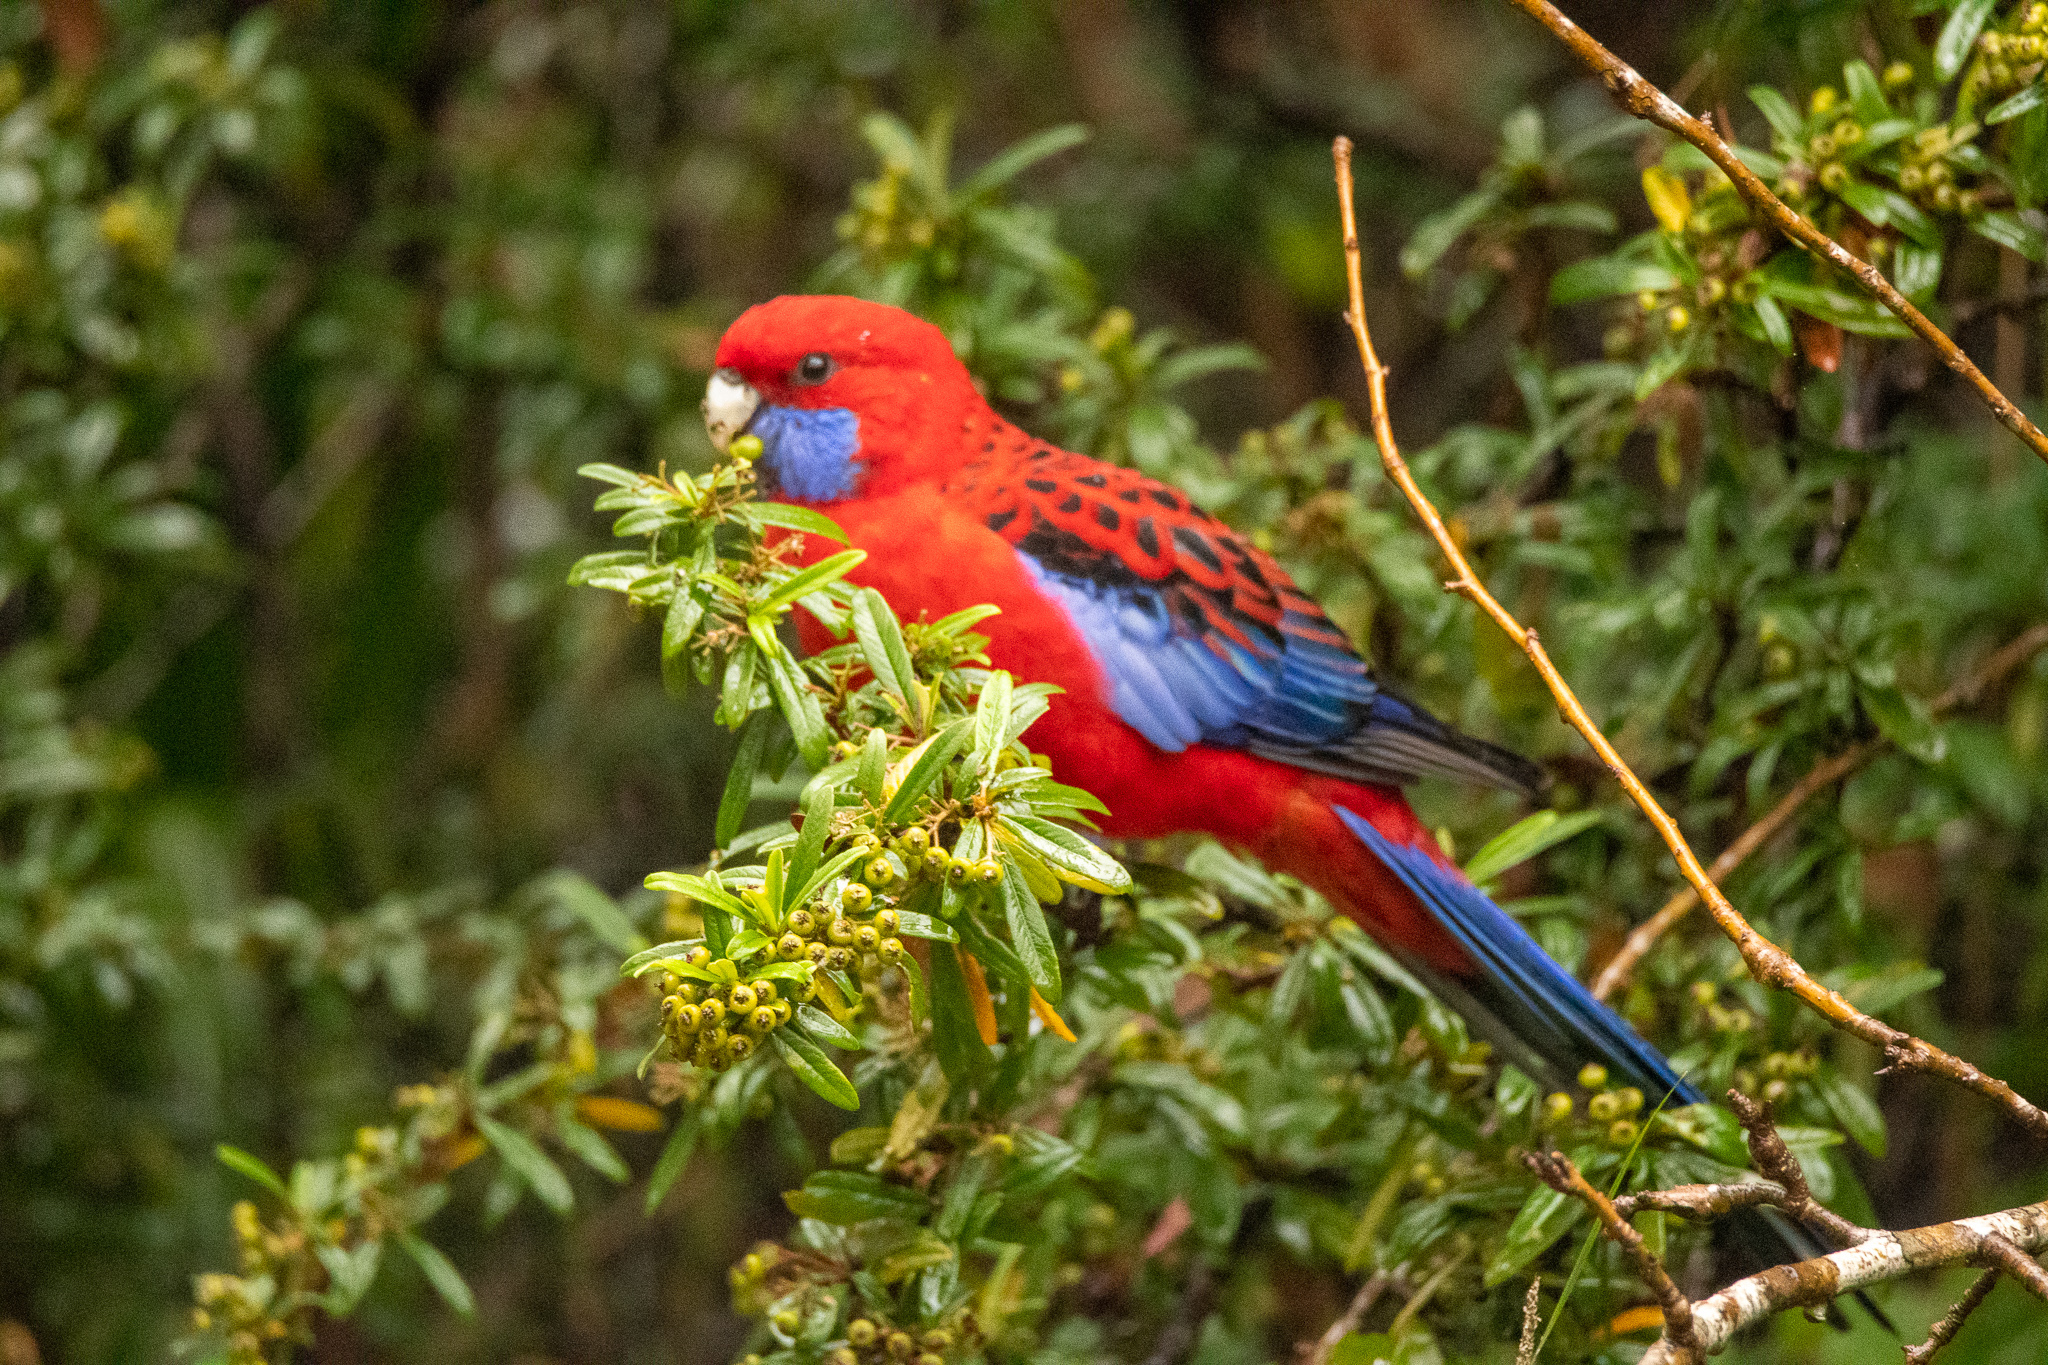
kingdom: Animalia
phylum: Chordata
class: Aves
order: Psittaciformes
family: Psittacidae
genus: Platycercus
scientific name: Platycercus elegans
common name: Crimson rosella
